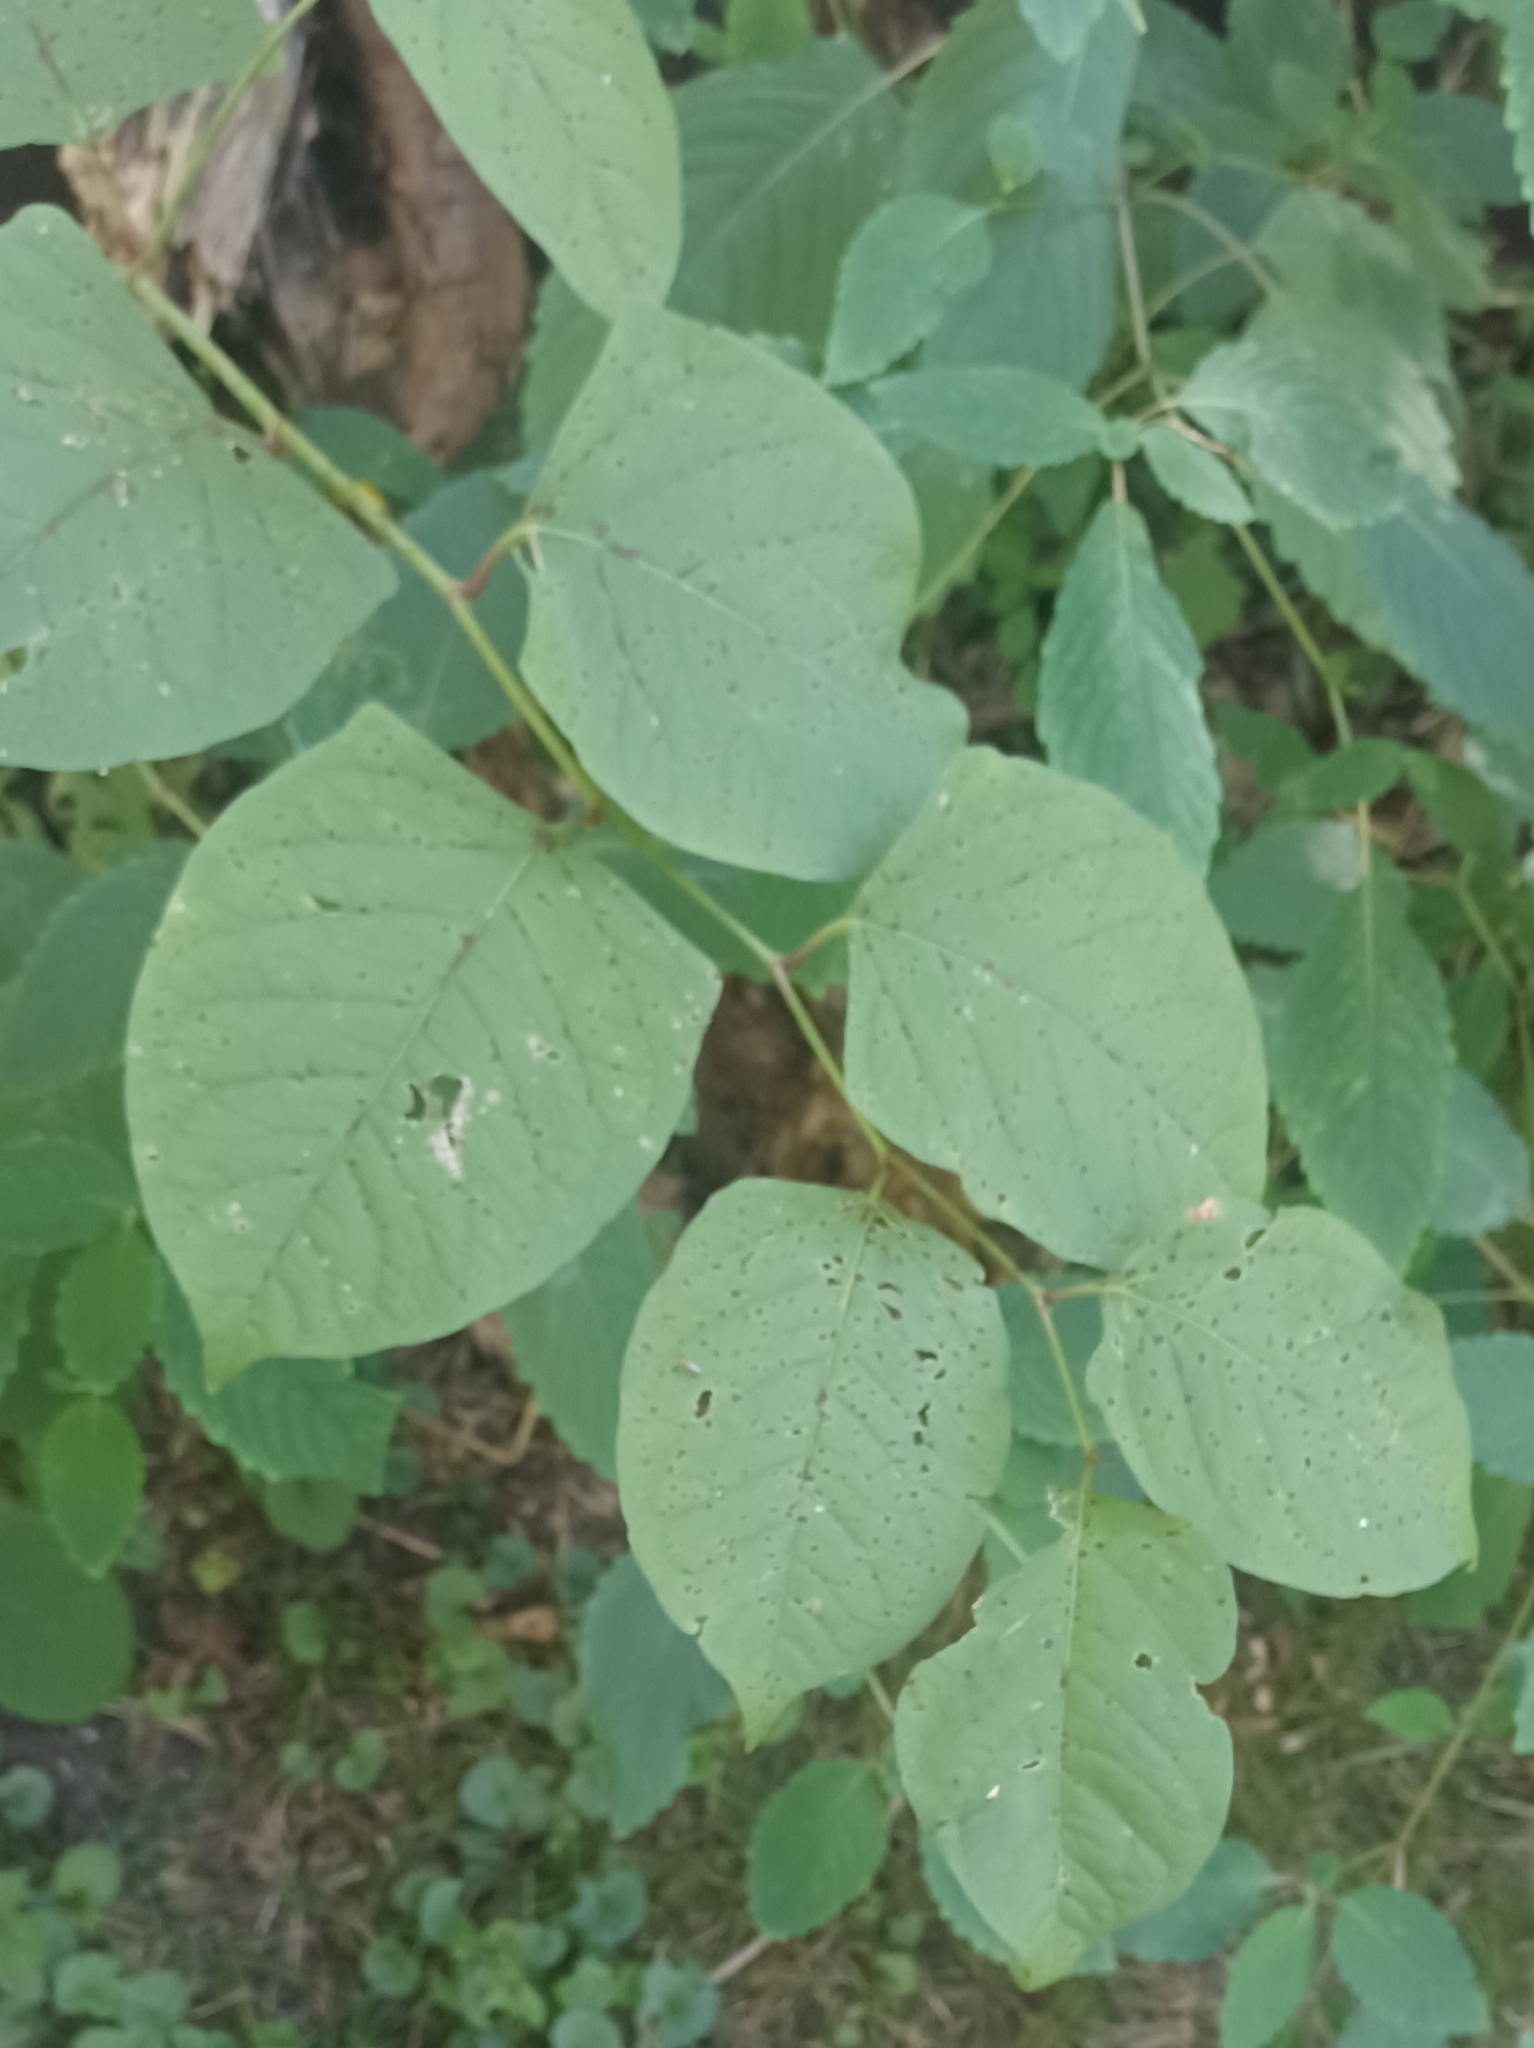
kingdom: Plantae
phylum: Tracheophyta
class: Magnoliopsida
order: Caryophyllales
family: Polygonaceae
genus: Reynoutria
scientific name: Reynoutria japonica
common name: Japanese knotweed
